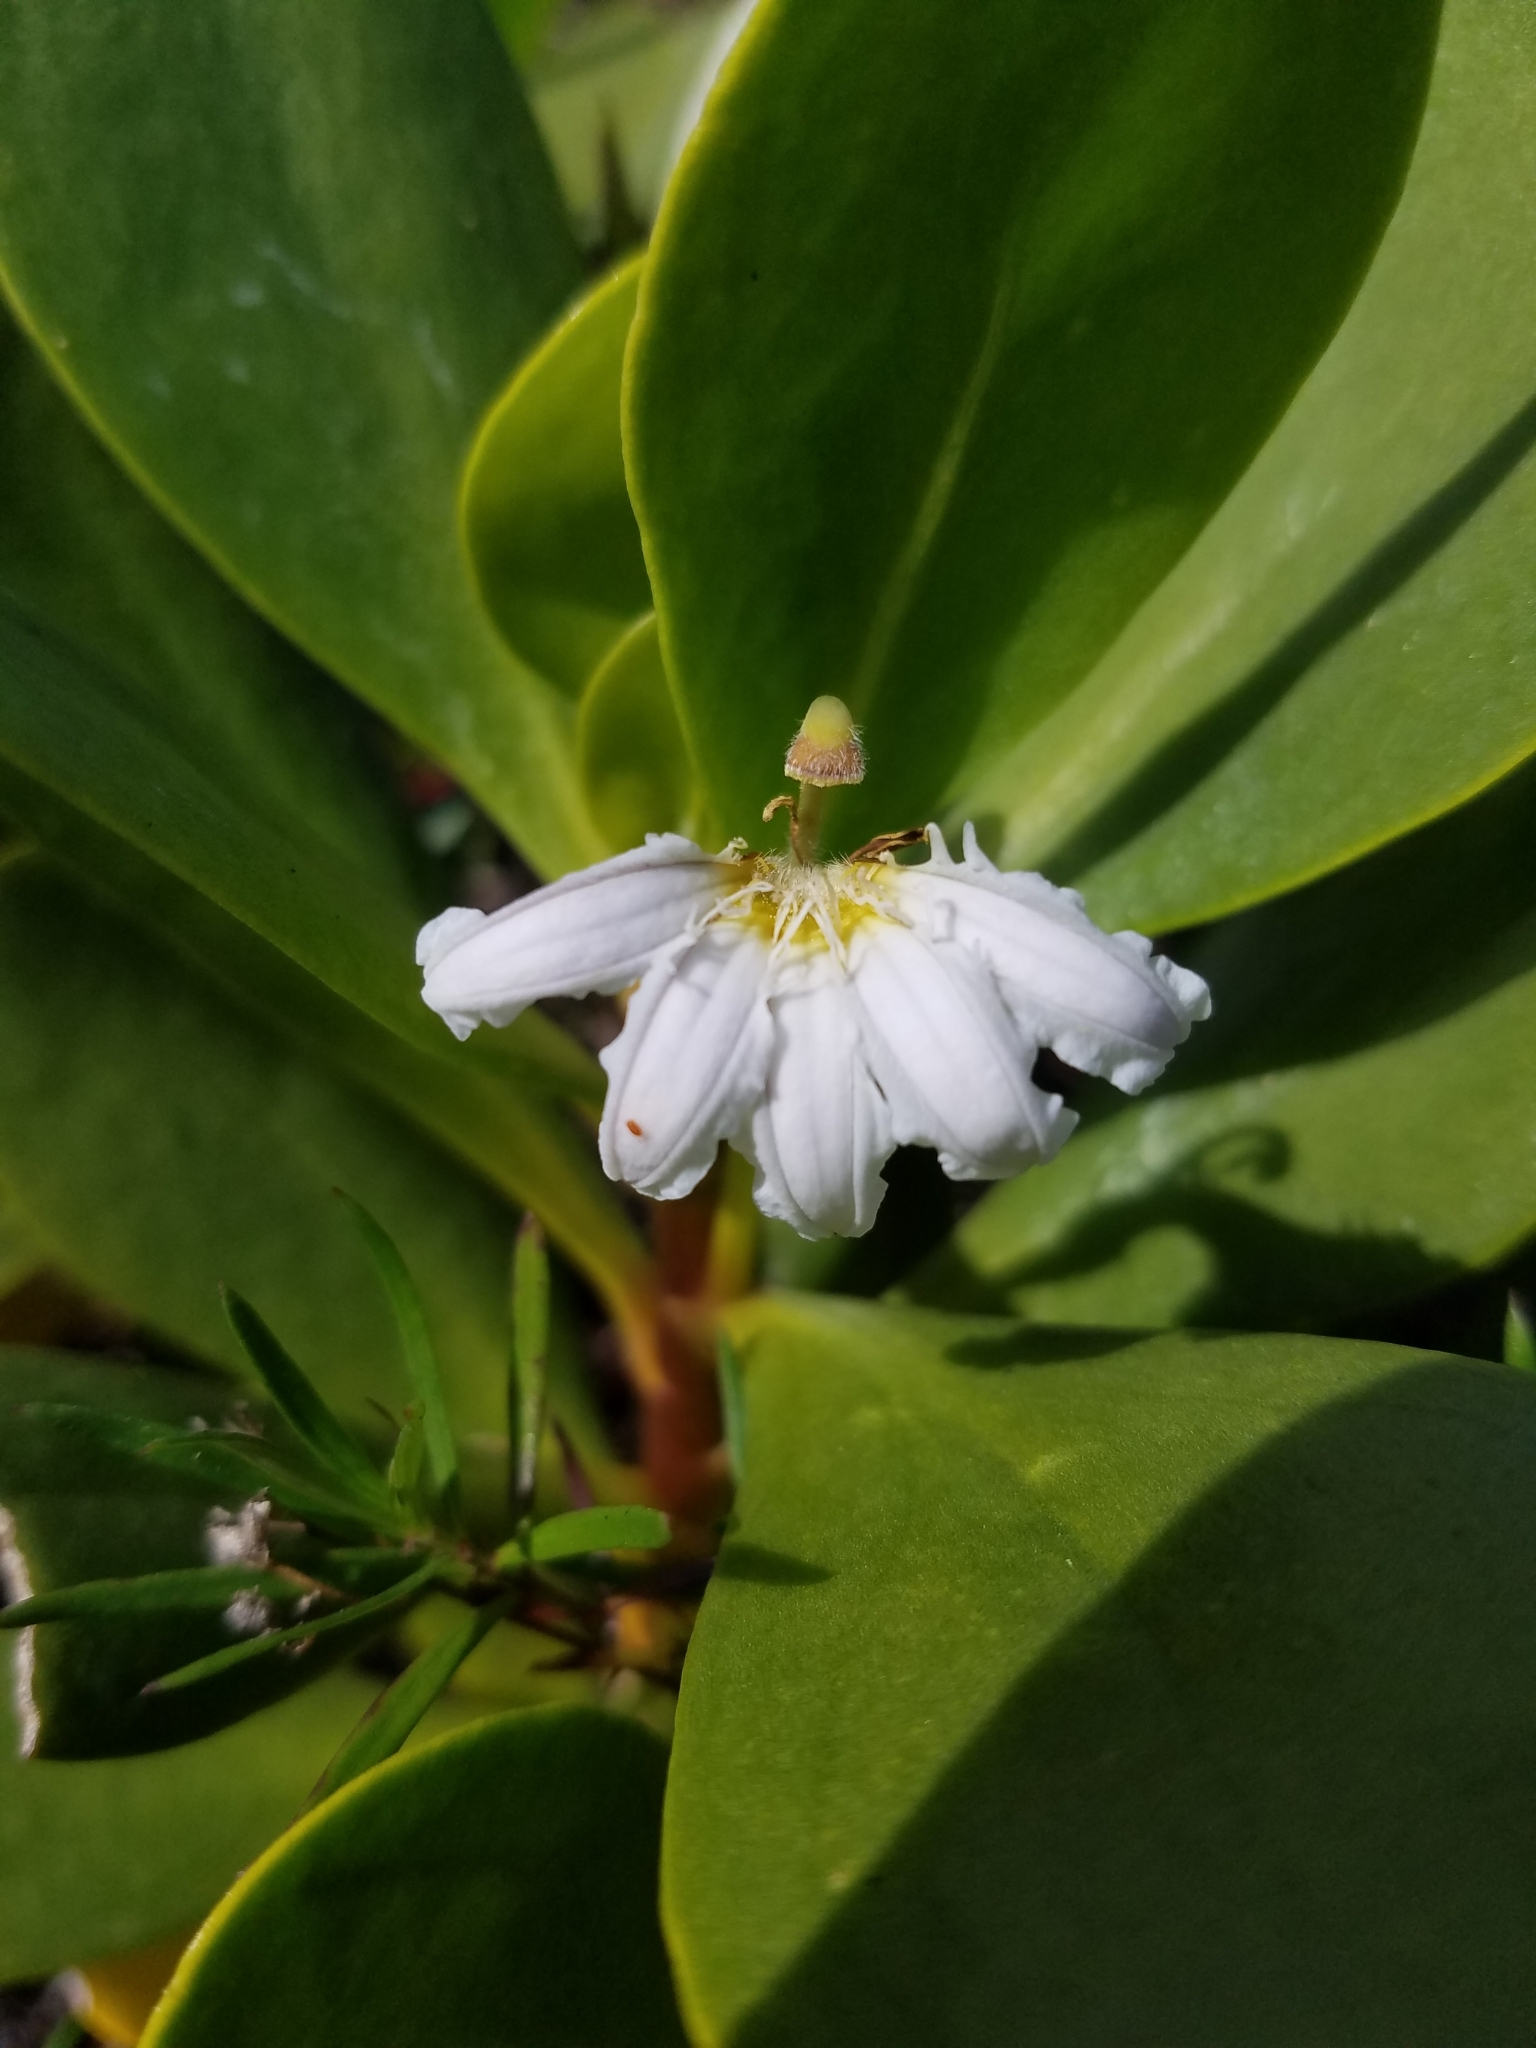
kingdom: Plantae
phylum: Tracheophyta
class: Magnoliopsida
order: Asterales
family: Goodeniaceae
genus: Scaevola
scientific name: Scaevola plumieri
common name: Gull feed
